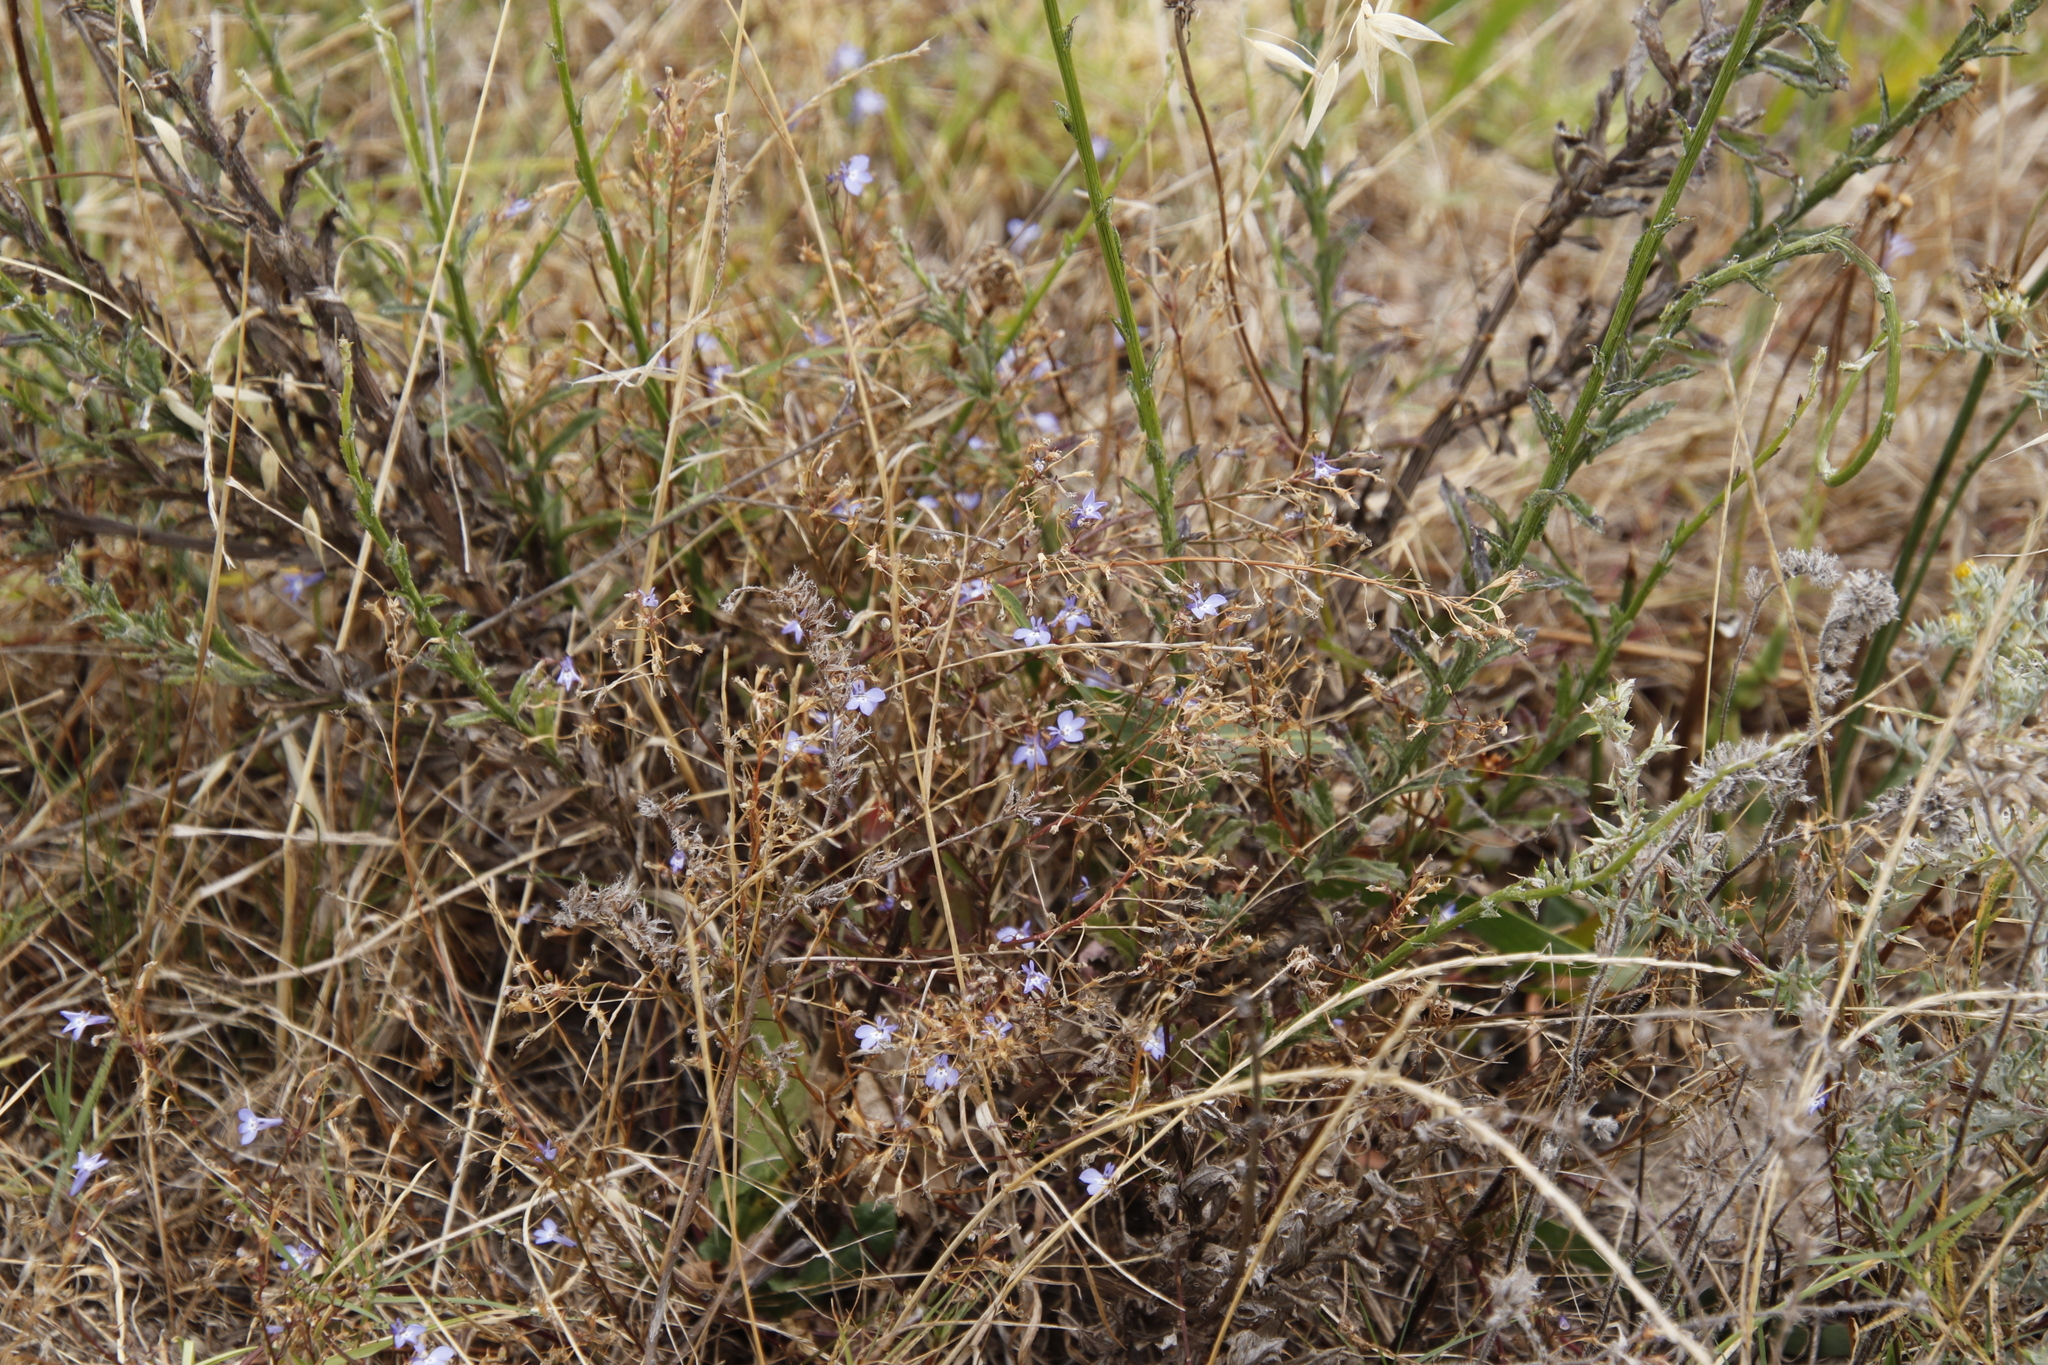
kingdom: Plantae
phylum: Tracheophyta
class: Magnoliopsida
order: Asterales
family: Campanulaceae
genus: Lobelia
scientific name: Lobelia erinus
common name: Edging lobelia
